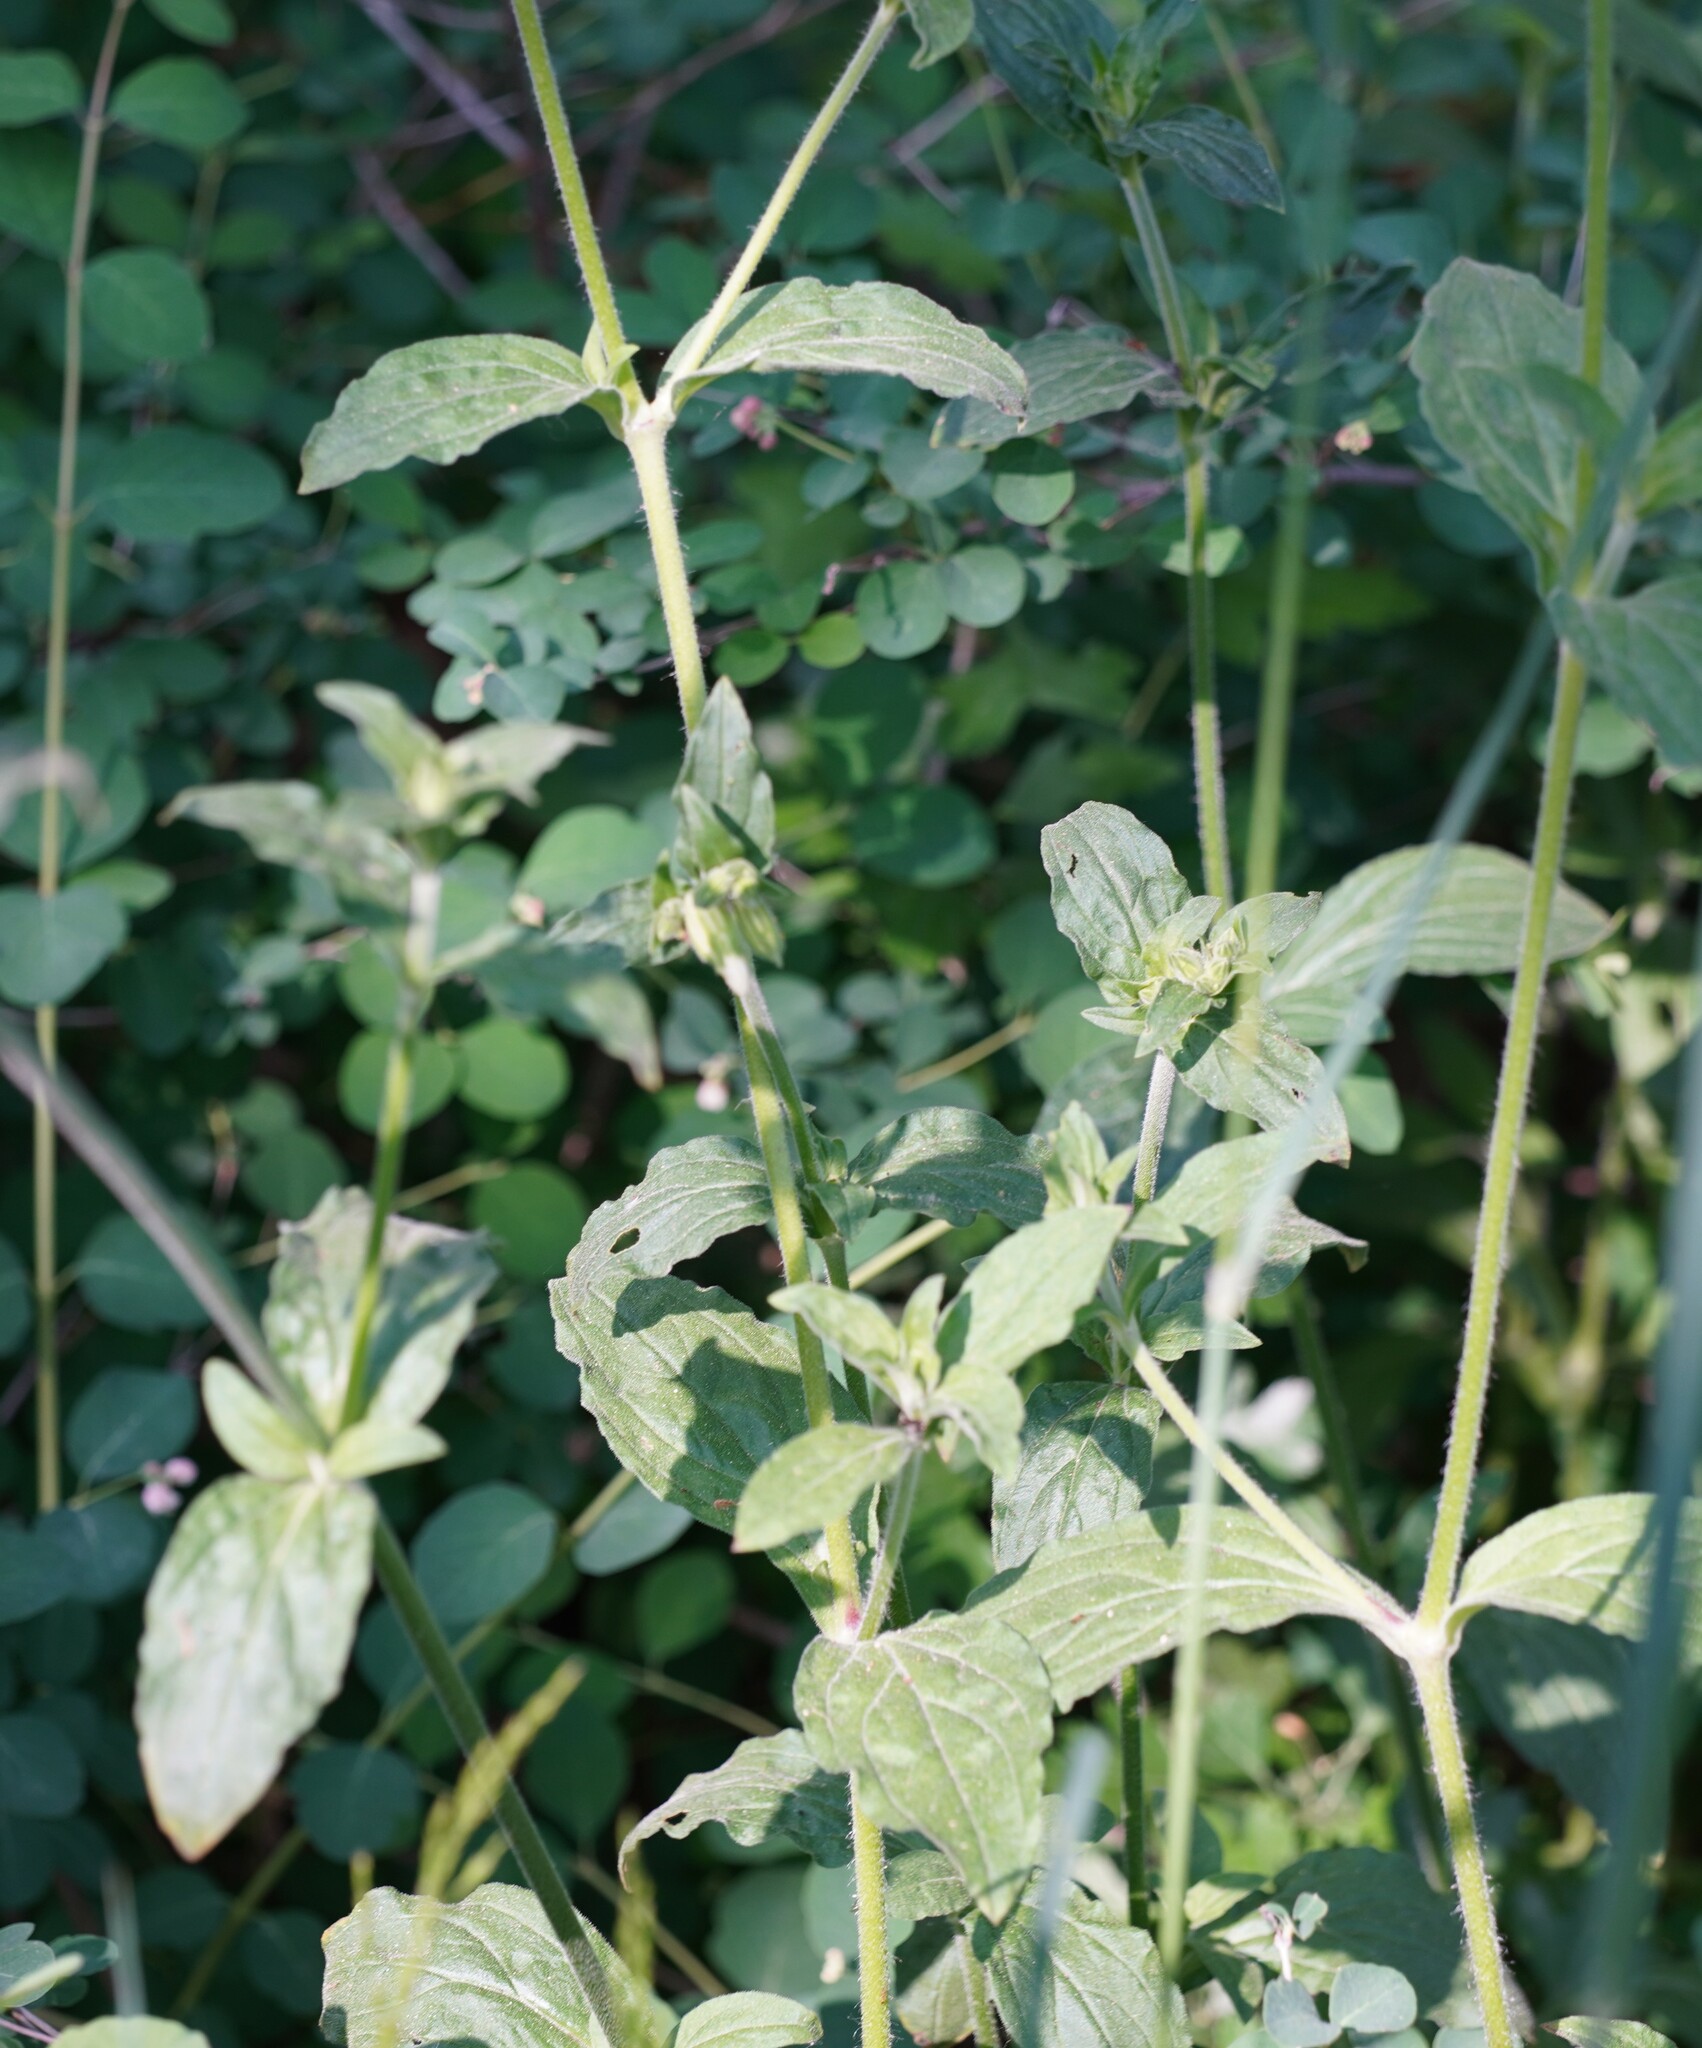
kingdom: Plantae
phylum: Tracheophyta
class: Magnoliopsida
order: Caryophyllales
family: Caryophyllaceae
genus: Silene
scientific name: Silene latifolia
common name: White campion
